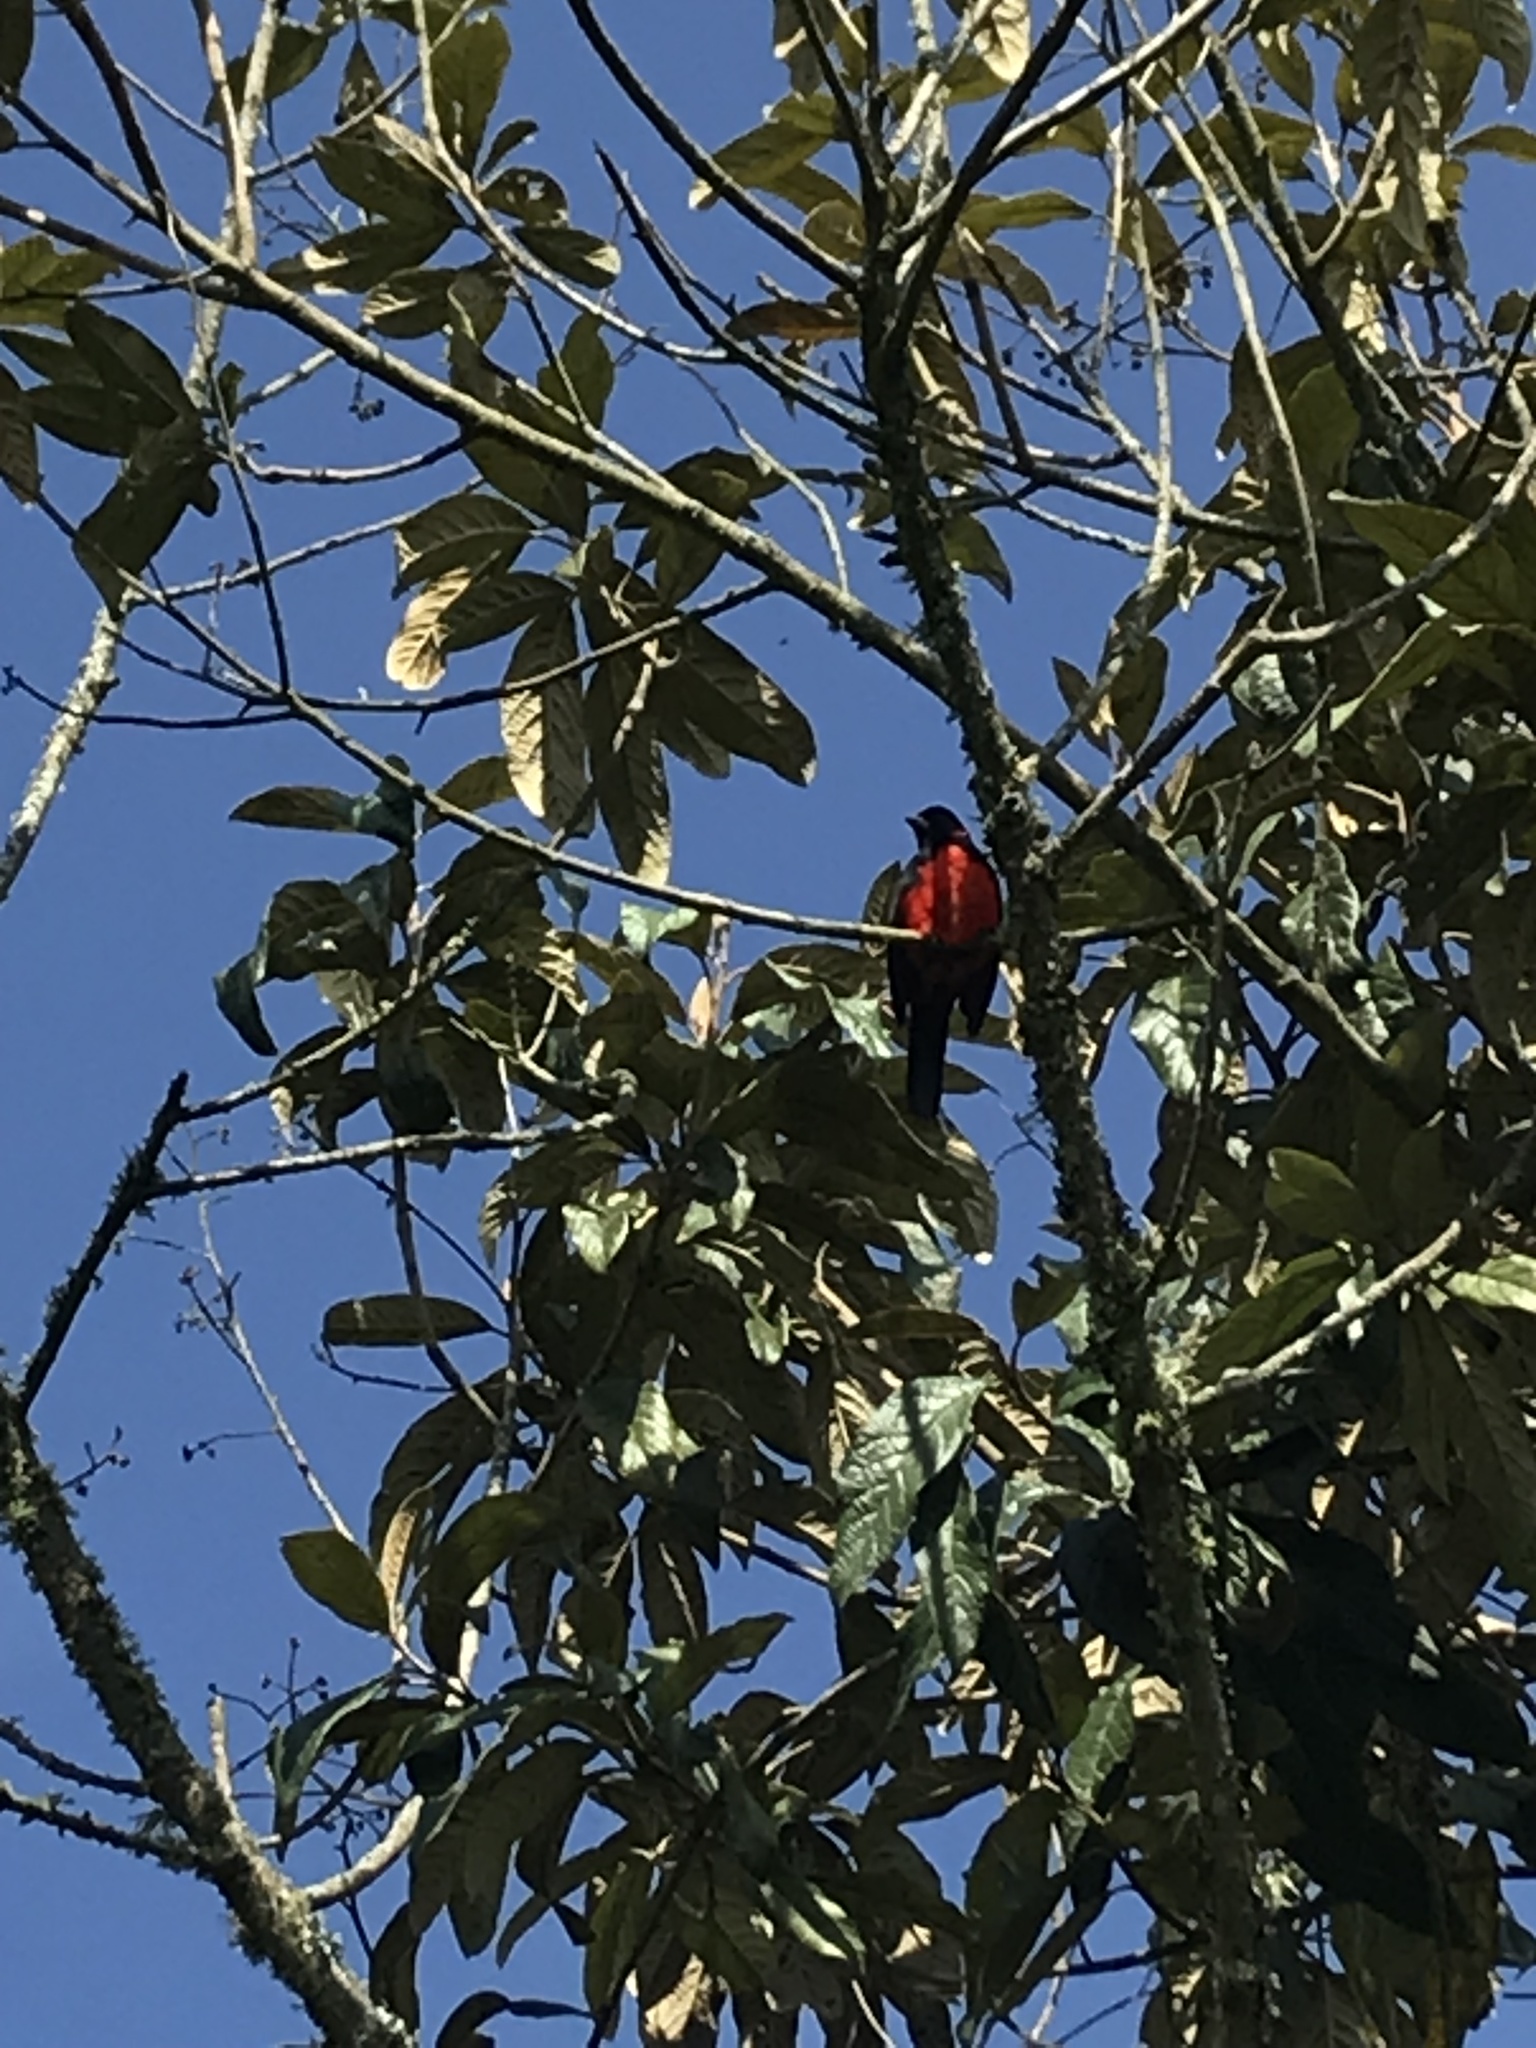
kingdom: Animalia
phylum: Chordata
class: Aves
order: Passeriformes
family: Thraupidae
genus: Anisognathus
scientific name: Anisognathus igniventris
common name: Scarlet-bellied mountain tanager
